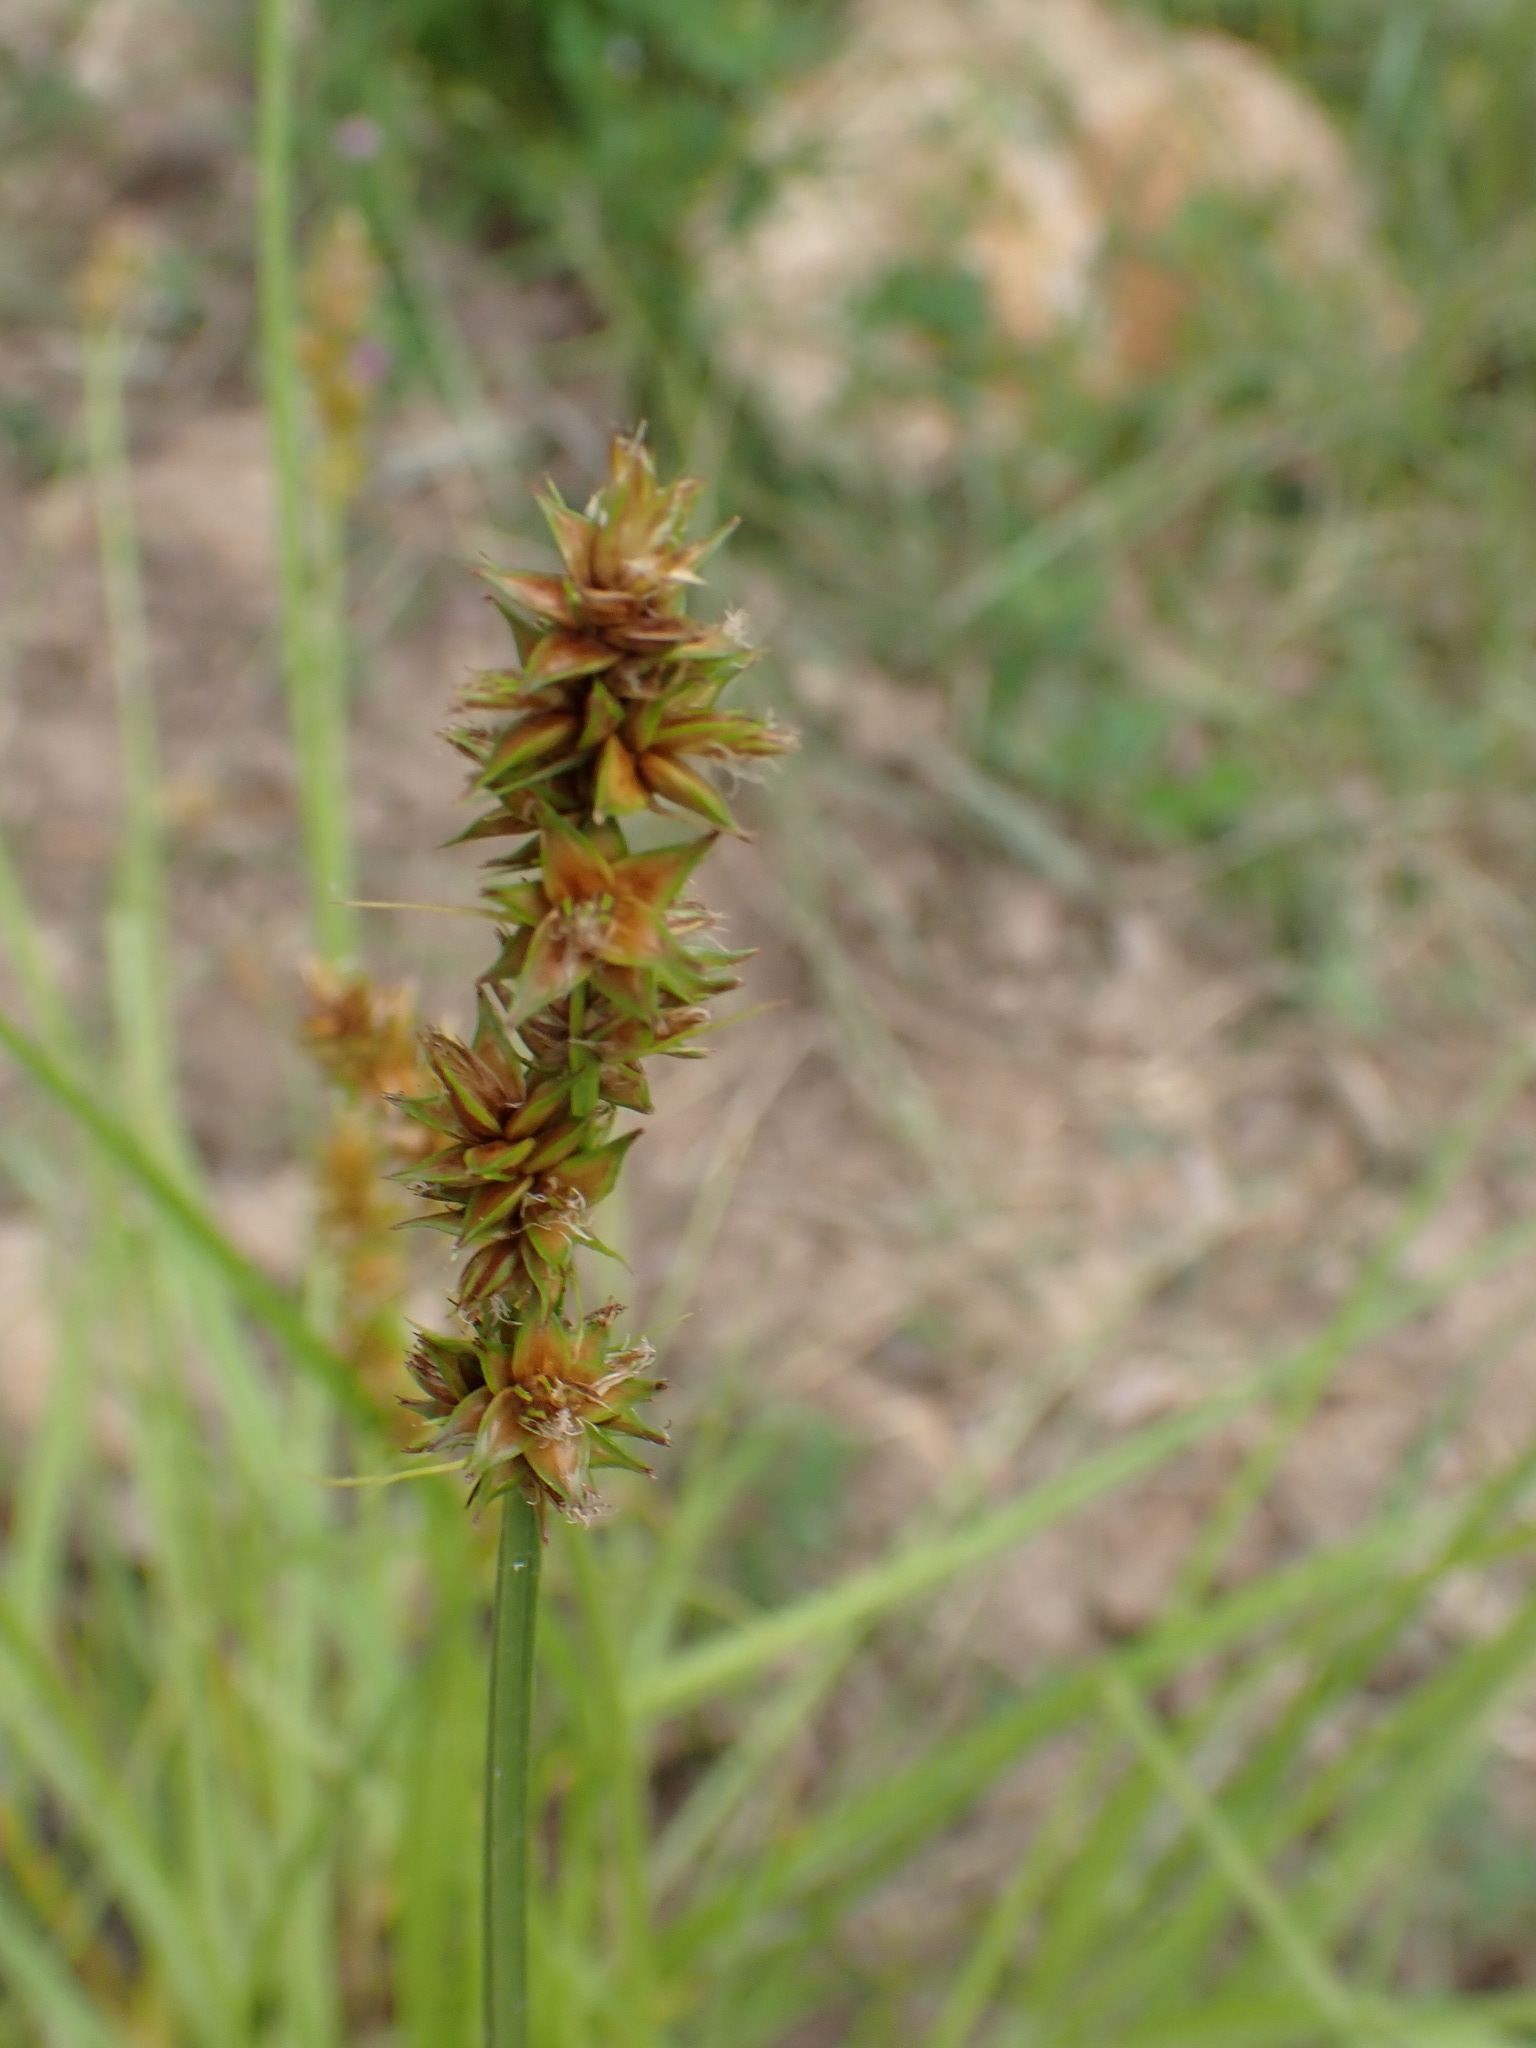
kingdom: Plantae
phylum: Tracheophyta
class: Liliopsida
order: Poales
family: Cyperaceae
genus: Carex
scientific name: Carex otrubae
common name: False fox-sedge
